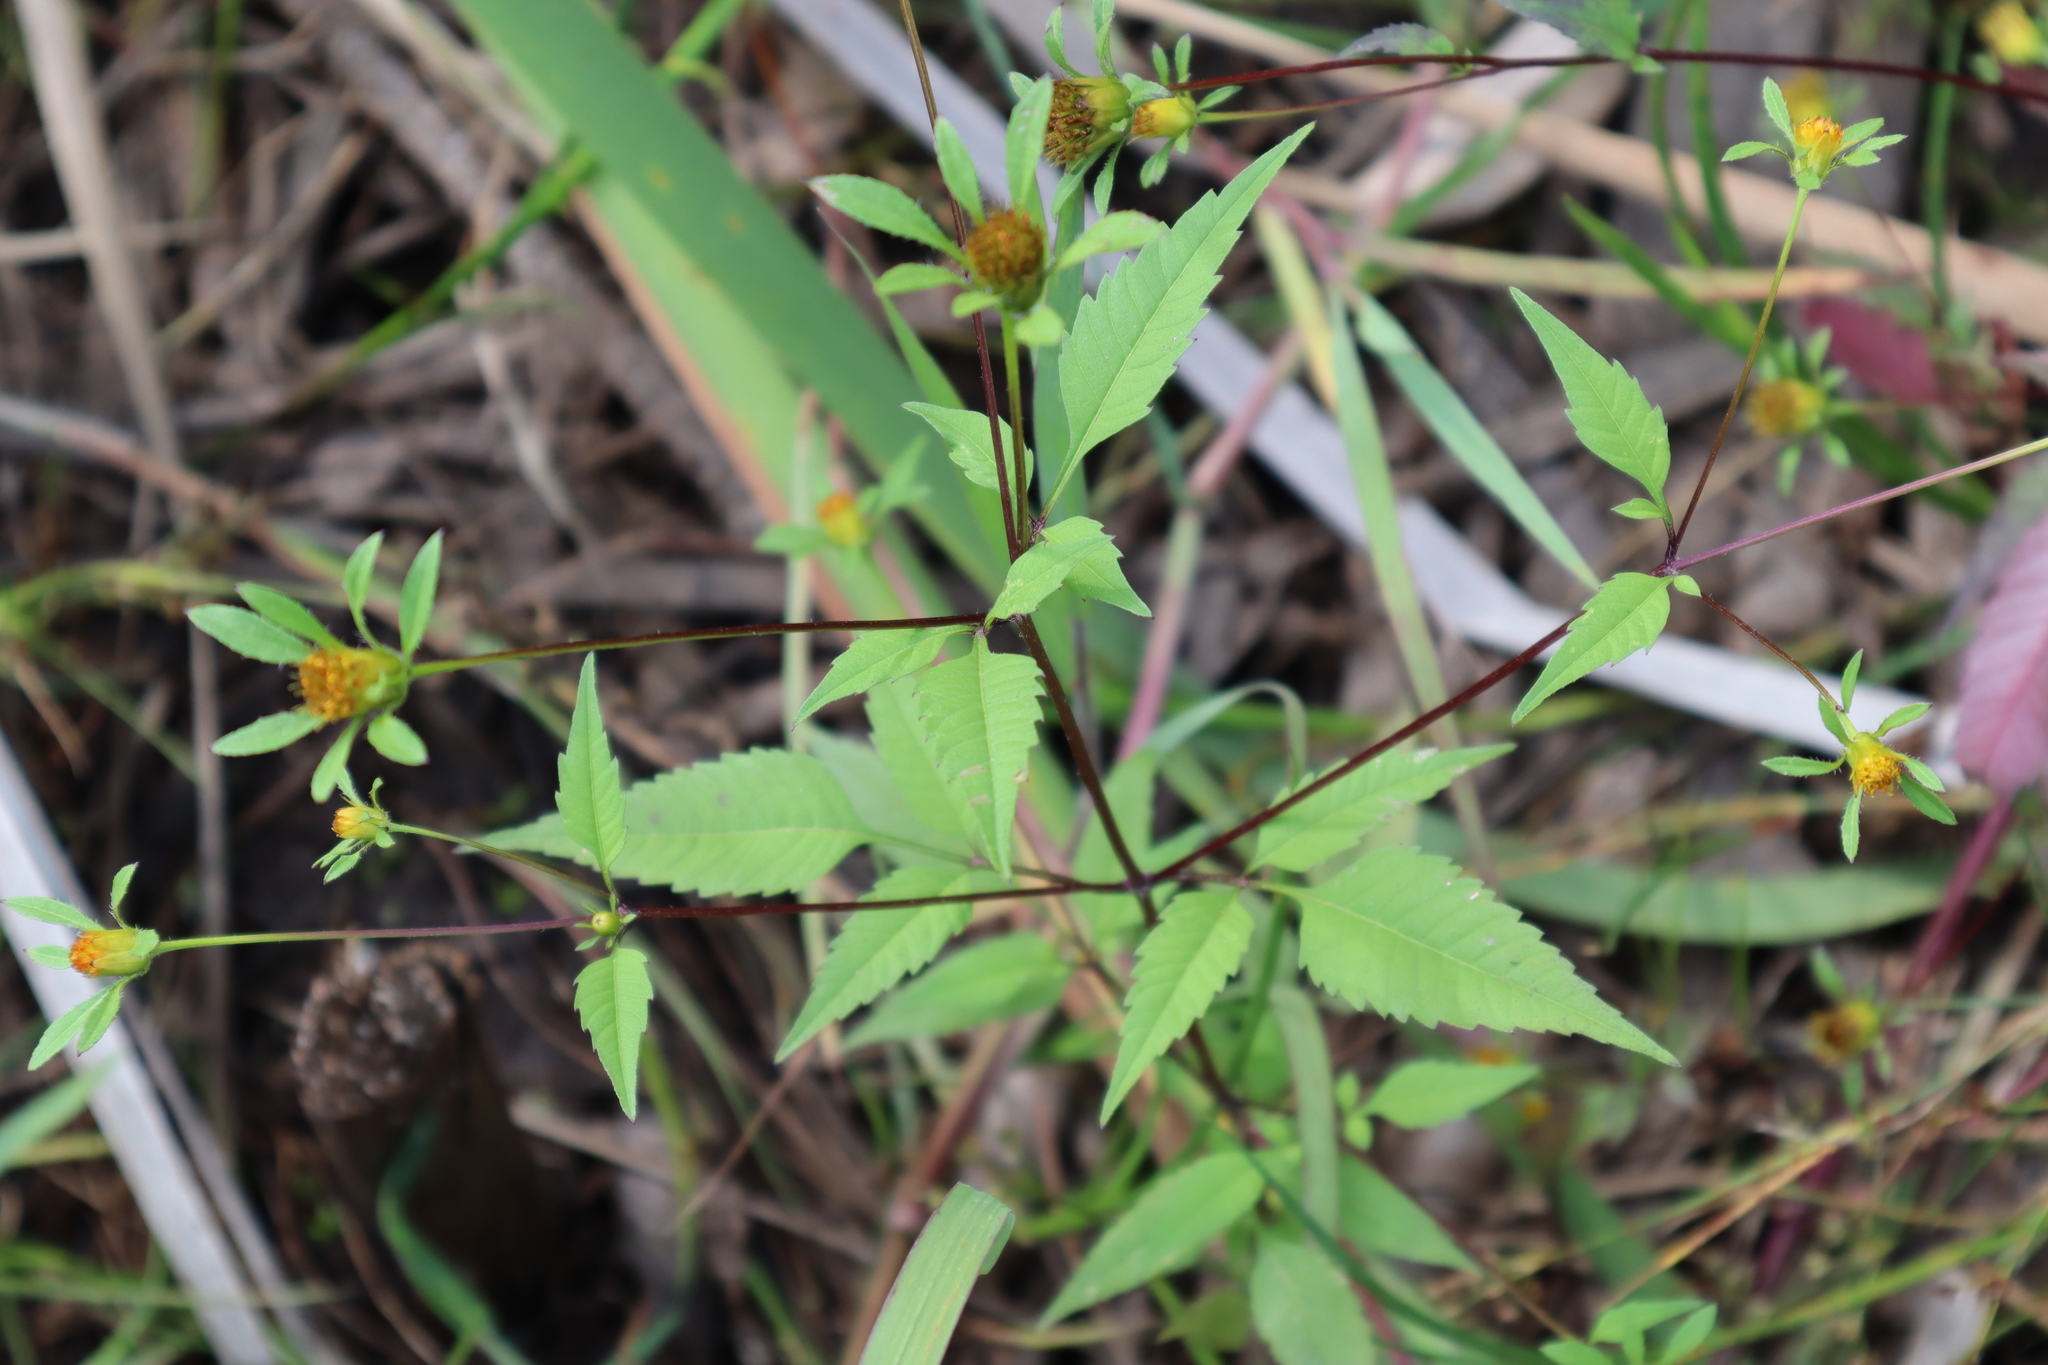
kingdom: Plantae
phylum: Tracheophyta
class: Magnoliopsida
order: Asterales
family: Asteraceae
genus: Bidens
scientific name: Bidens frondosa
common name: Beggarticks
